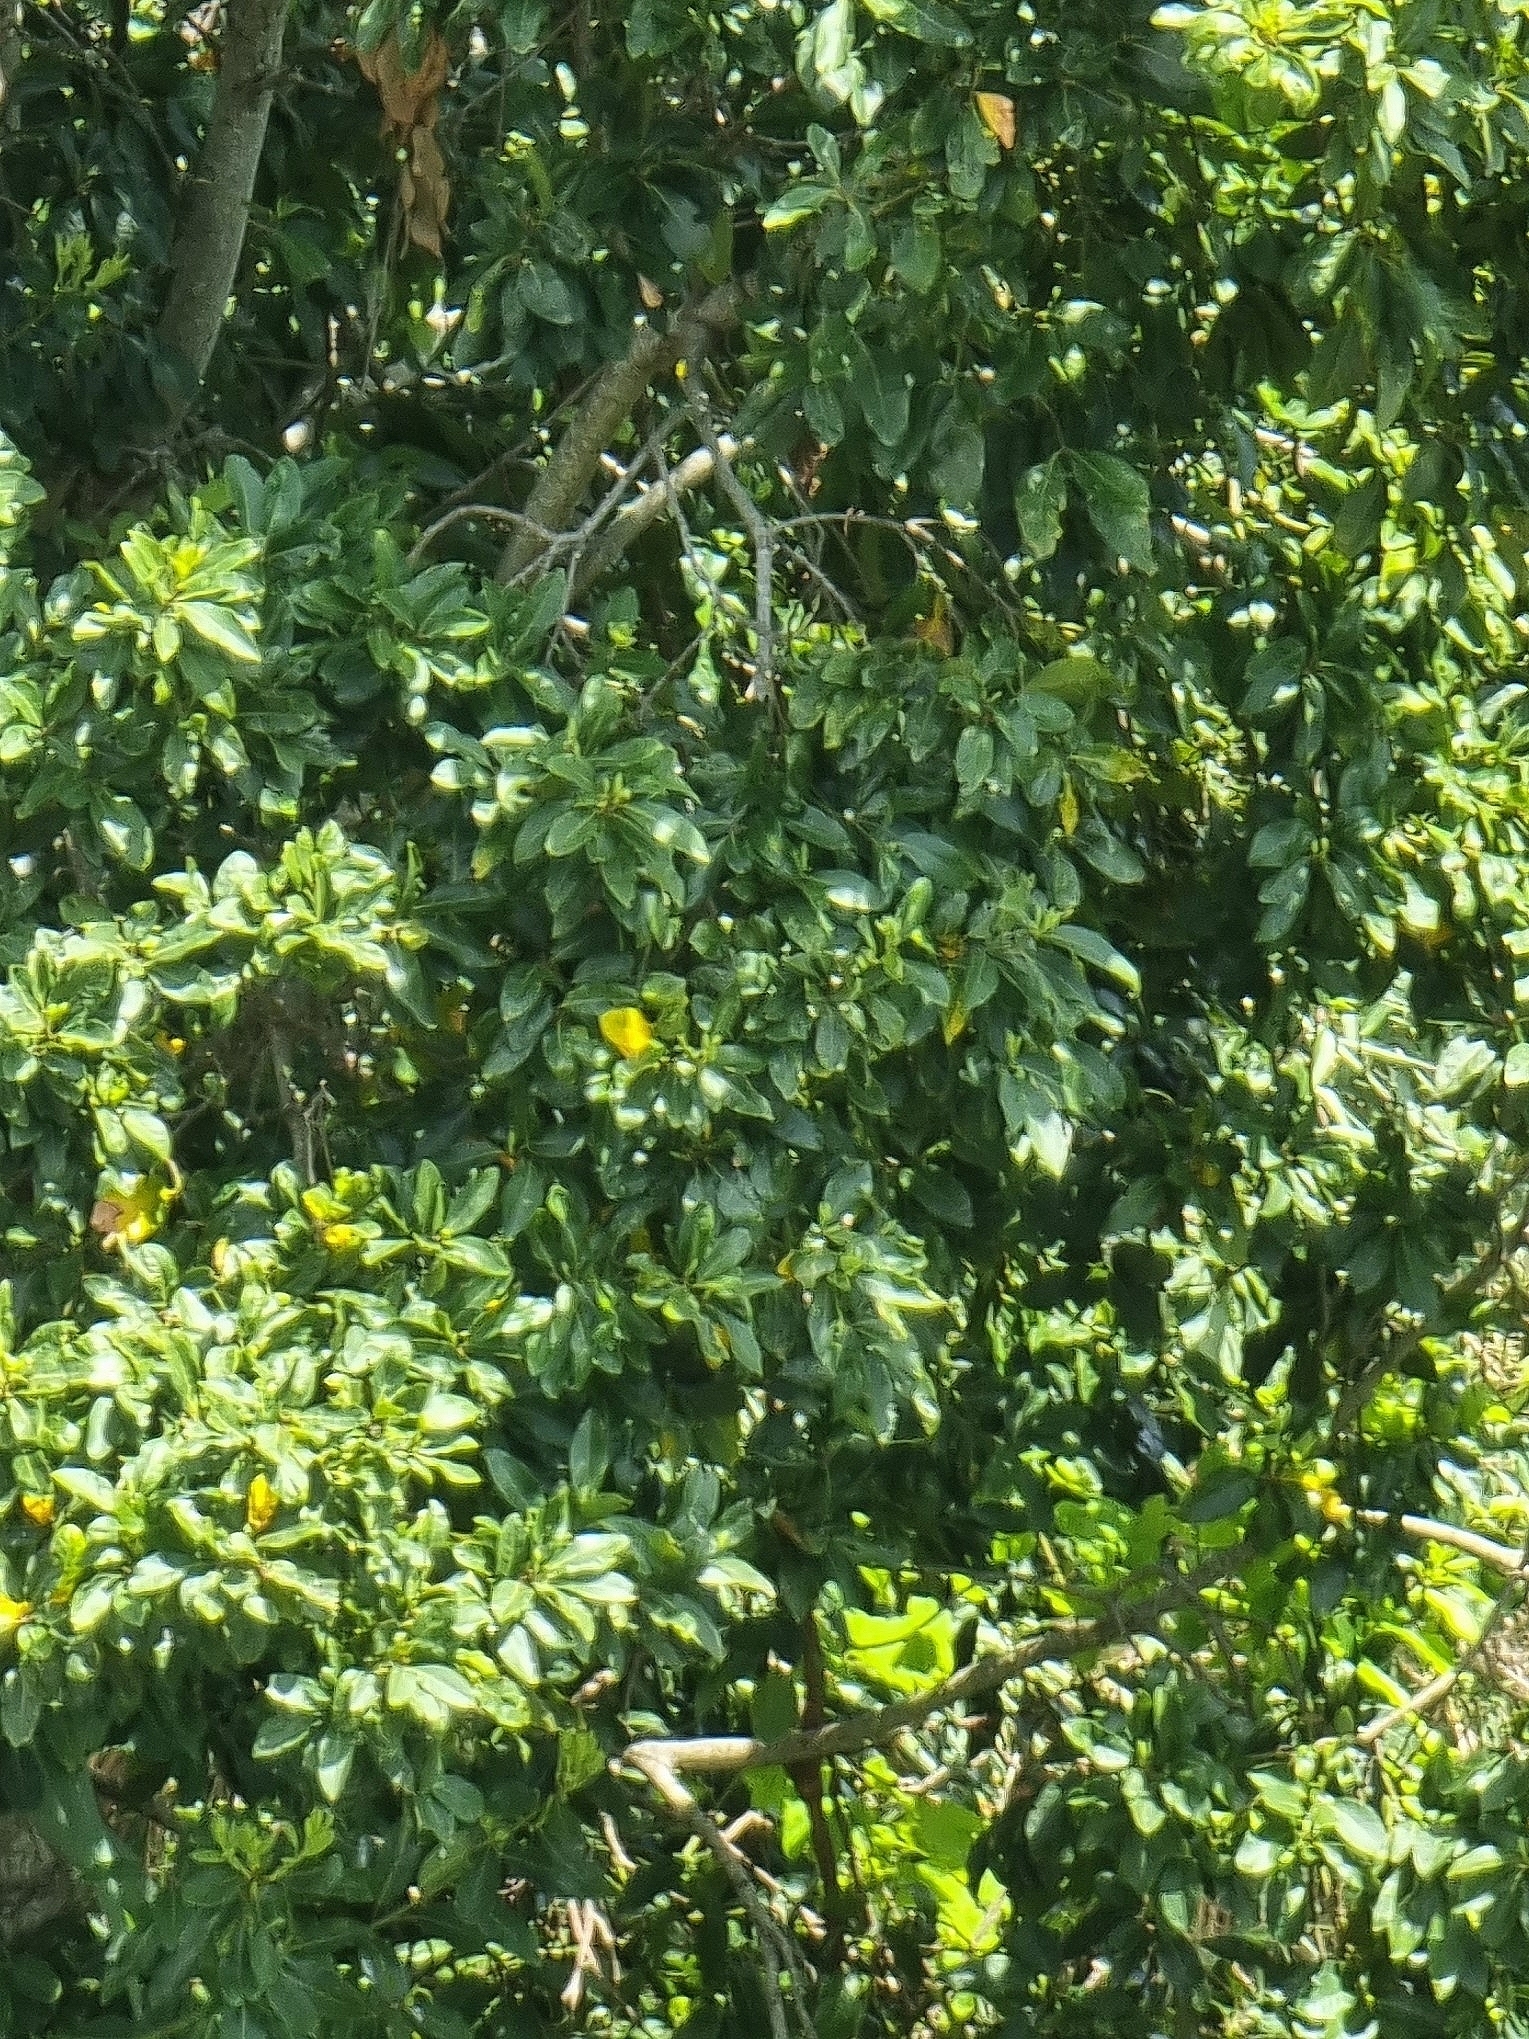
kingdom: Plantae
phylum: Tracheophyta
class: Magnoliopsida
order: Laurales
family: Lauraceae
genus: Laurus
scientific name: Laurus novocanariensis
